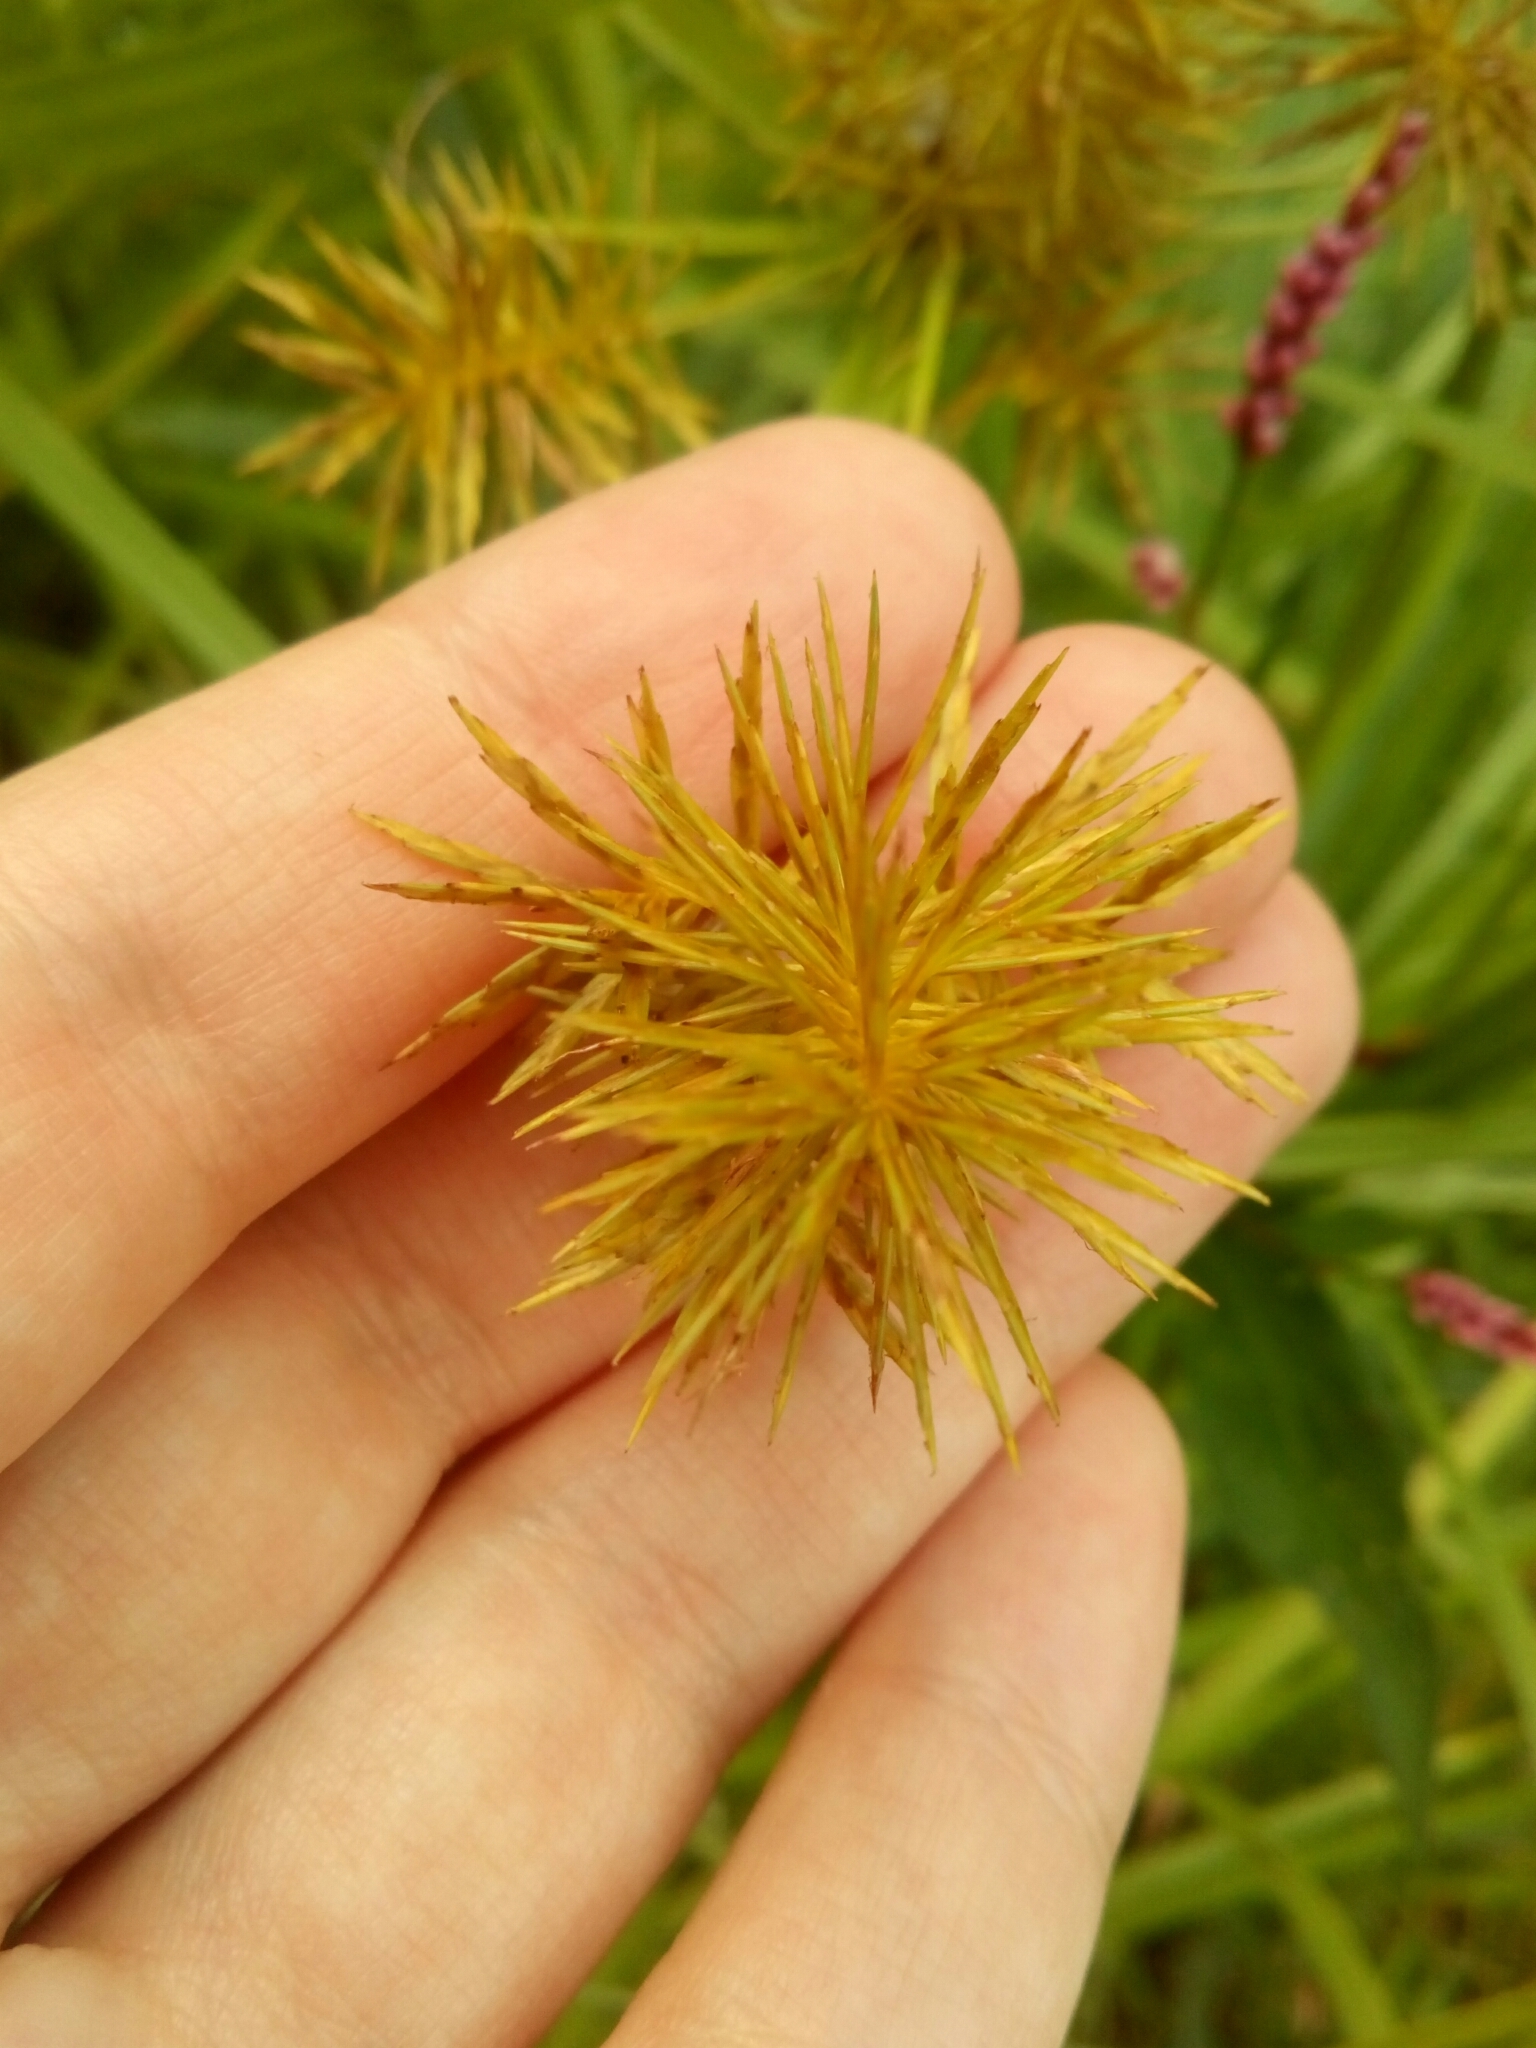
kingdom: Plantae
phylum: Tracheophyta
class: Liliopsida
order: Poales
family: Cyperaceae
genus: Cyperus
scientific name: Cyperus strigosus
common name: False nutsedge
